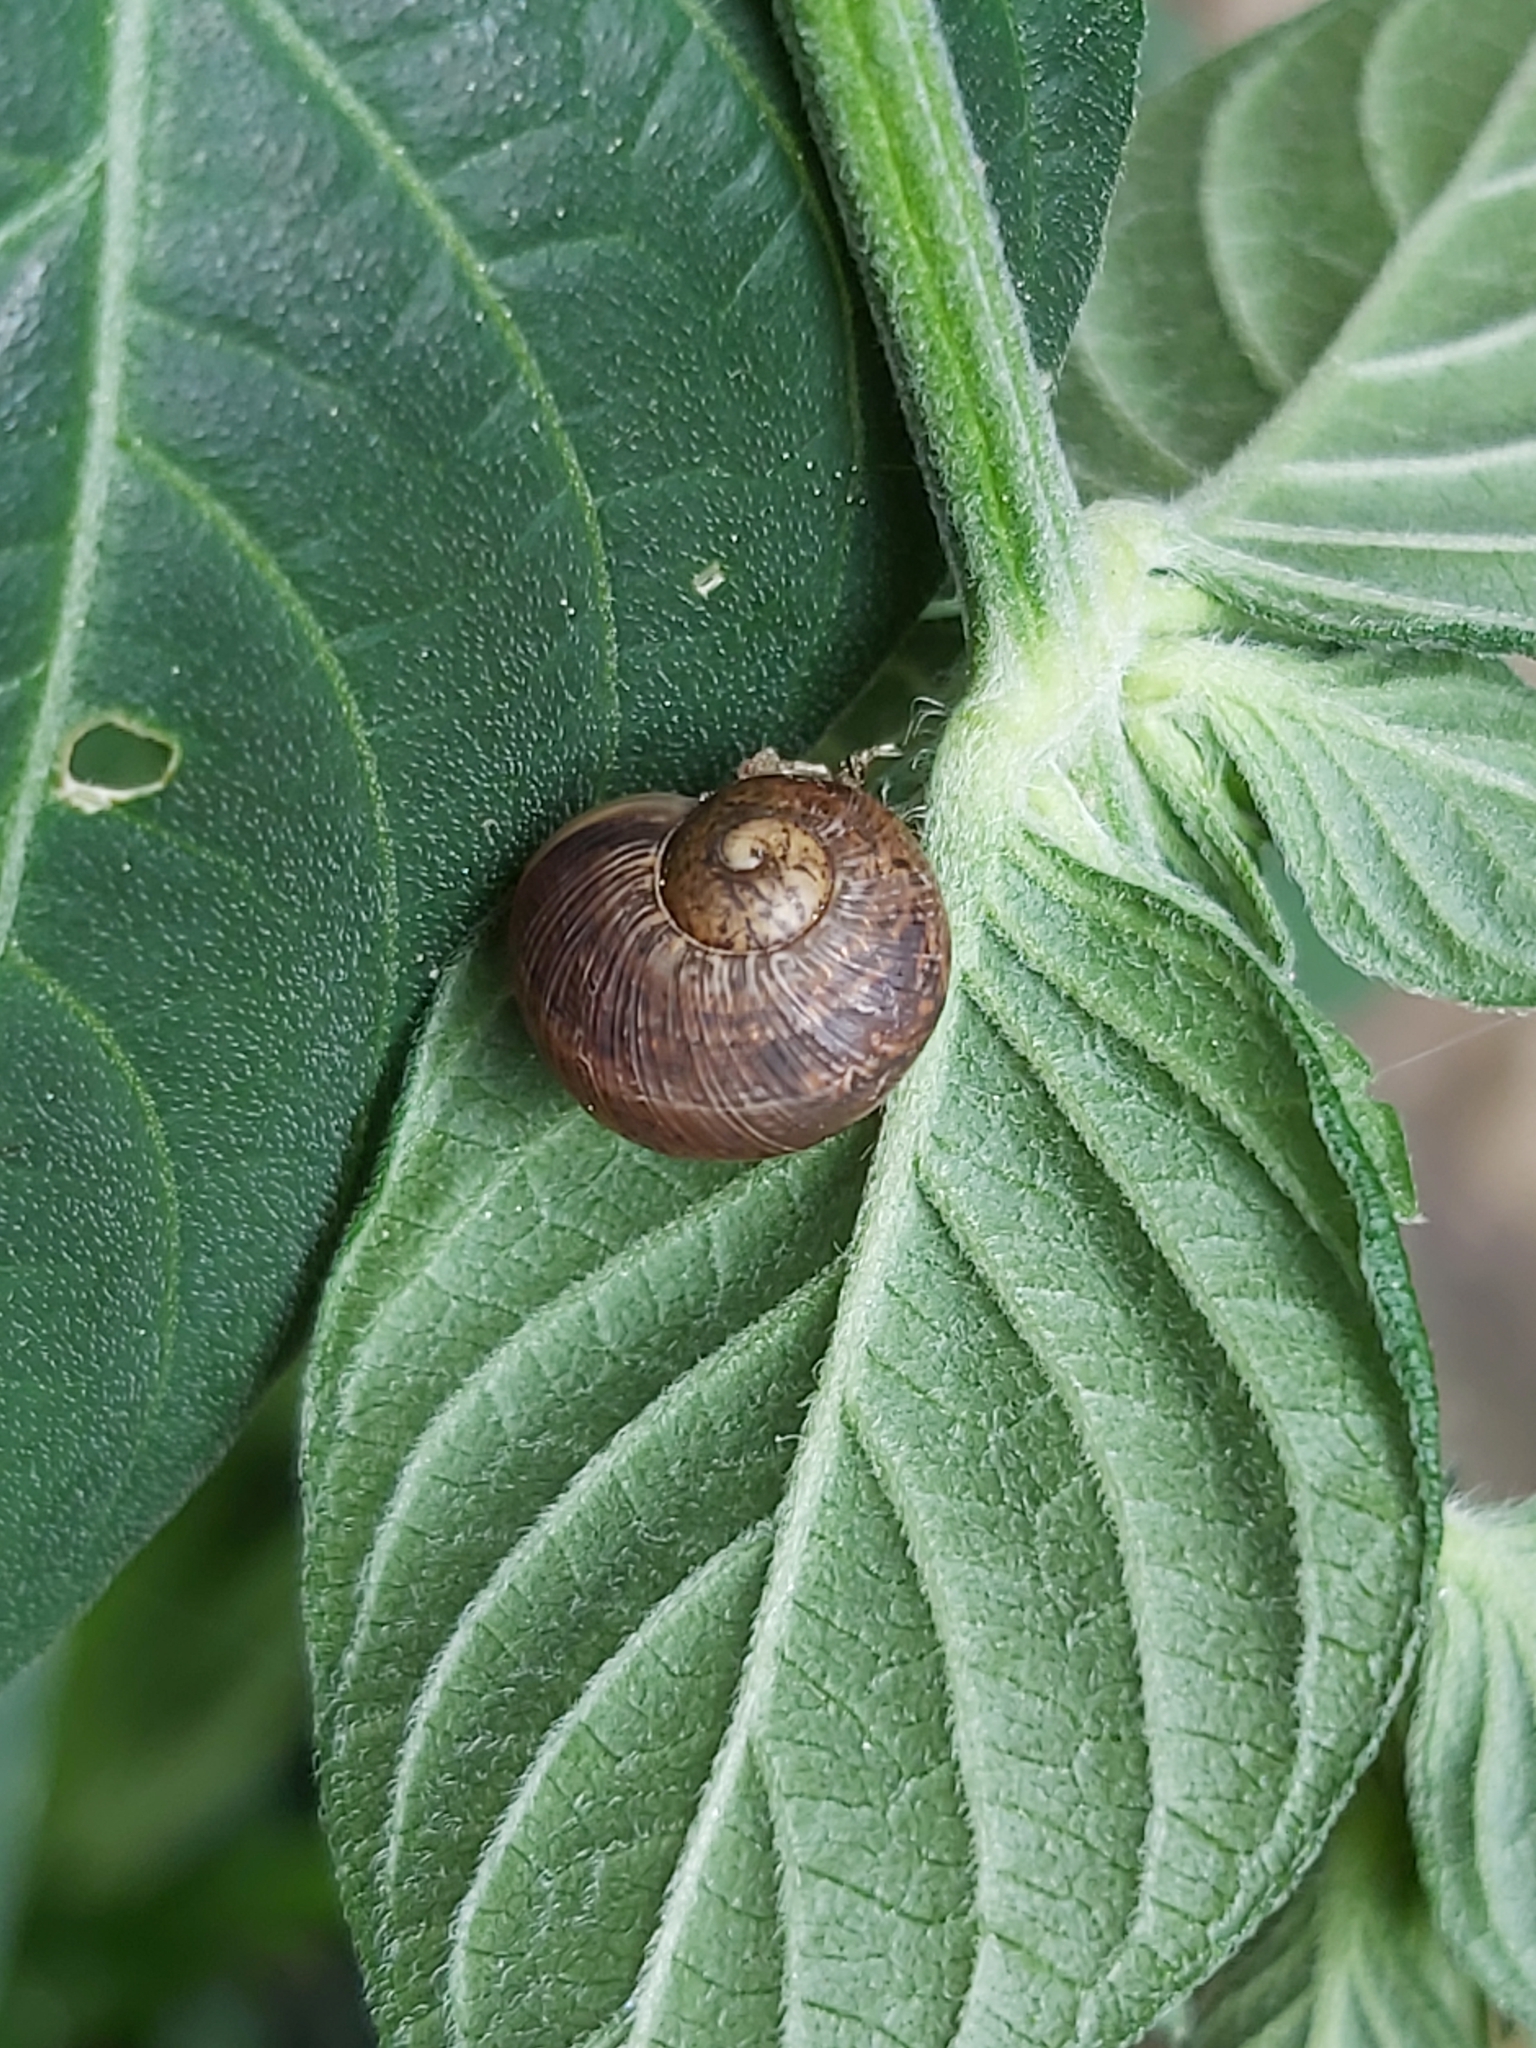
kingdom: Animalia
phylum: Mollusca
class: Gastropoda
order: Stylommatophora
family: Helicidae
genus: Cornu
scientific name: Cornu aspersum
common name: Brown garden snail
